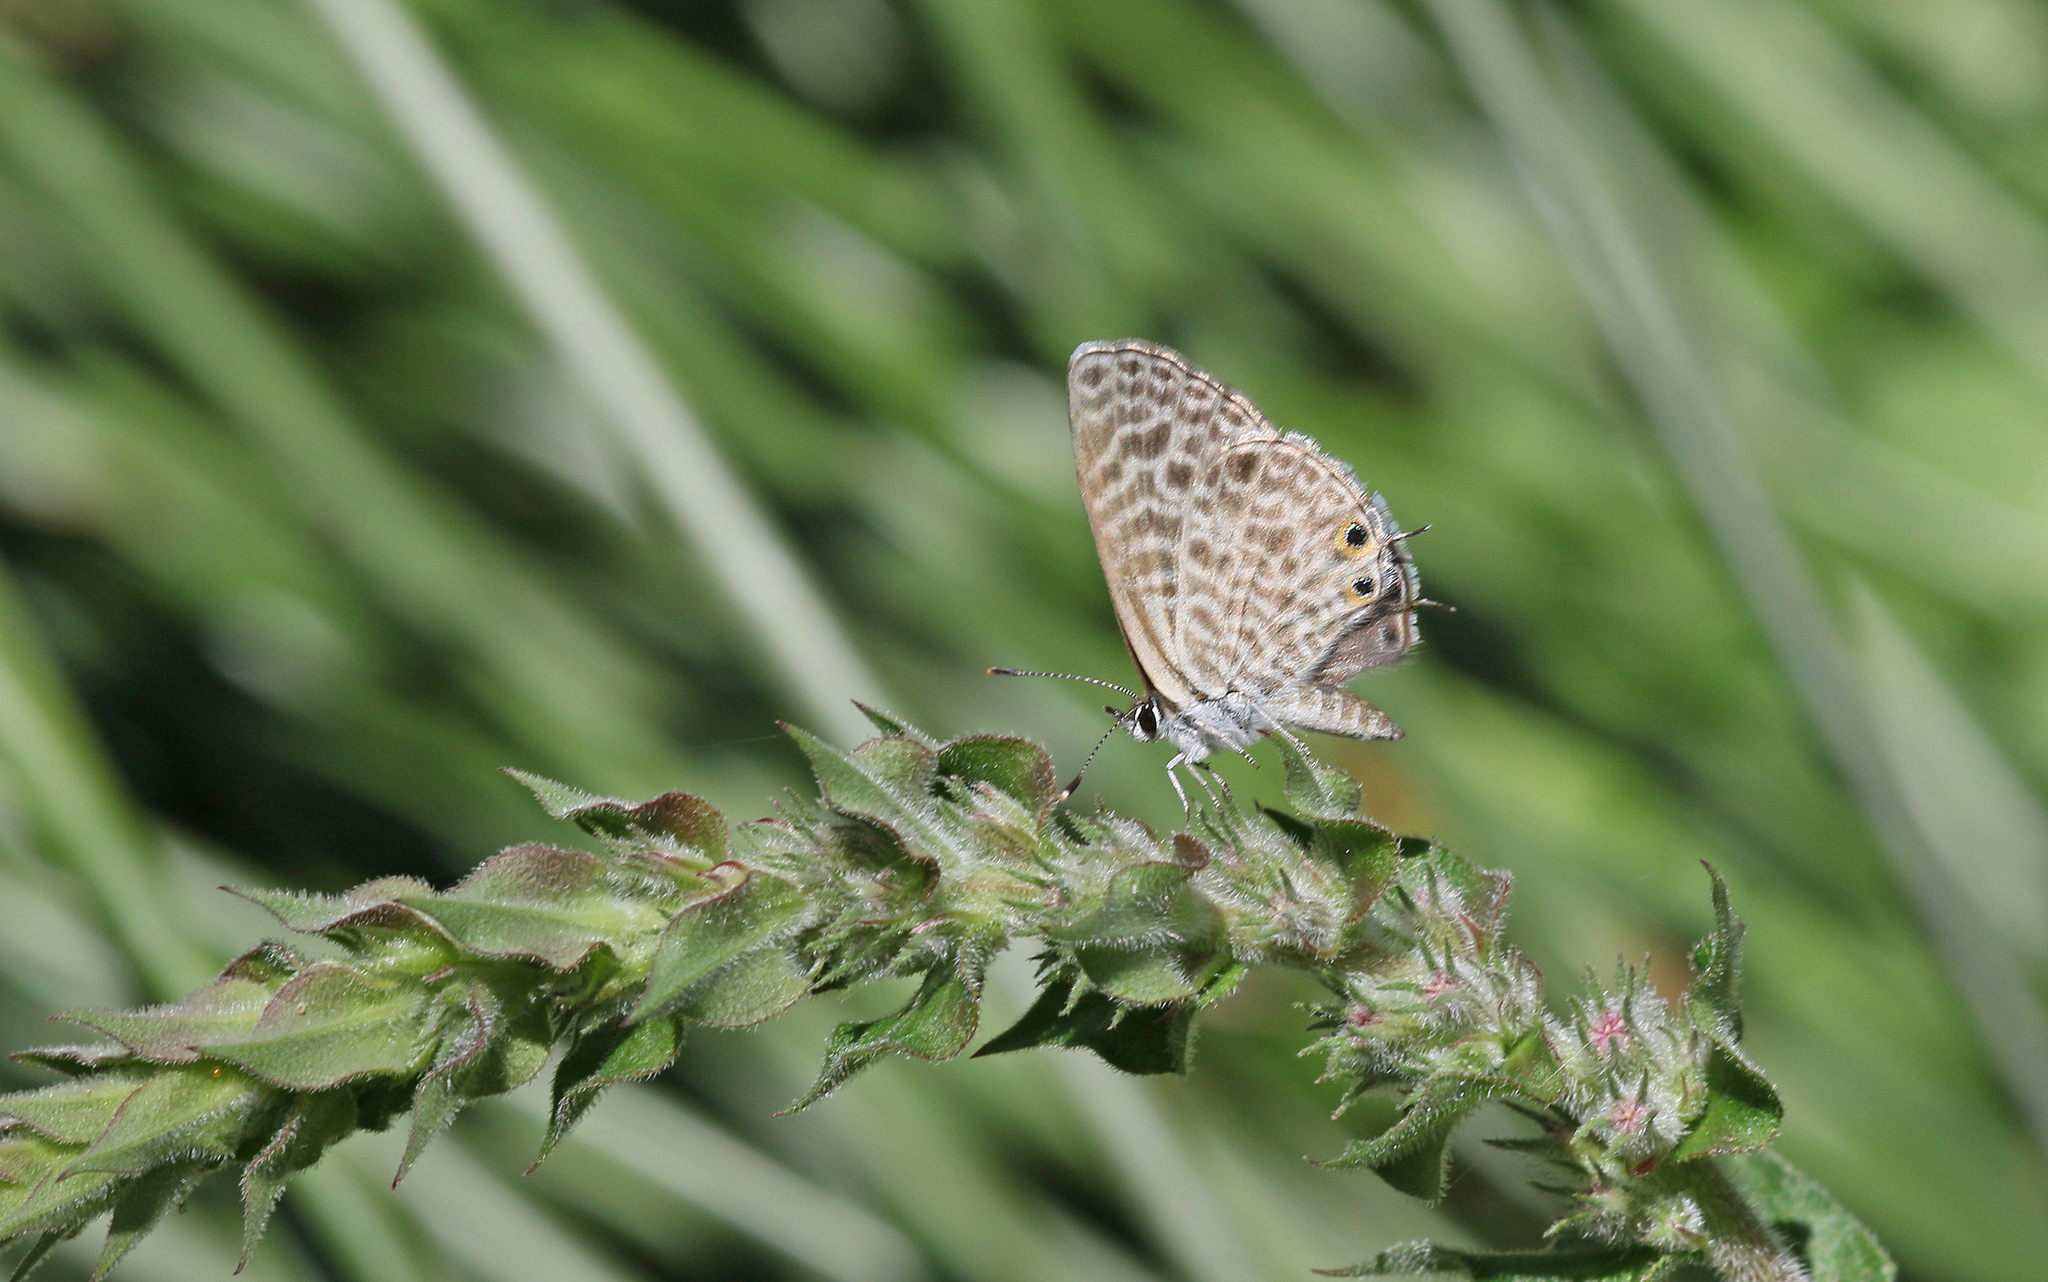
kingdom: Animalia
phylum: Arthropoda
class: Insecta
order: Lepidoptera
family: Lycaenidae
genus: Leptotes
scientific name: Leptotes pirithous
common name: Lang's short-tailed blue
